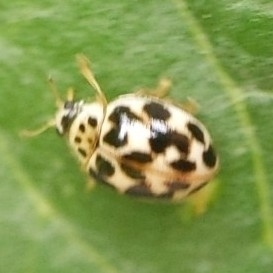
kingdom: Animalia
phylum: Arthropoda
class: Insecta
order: Coleoptera
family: Coccinellidae
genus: Psyllobora
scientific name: Psyllobora vigintimaculata
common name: Ladybird beetle
